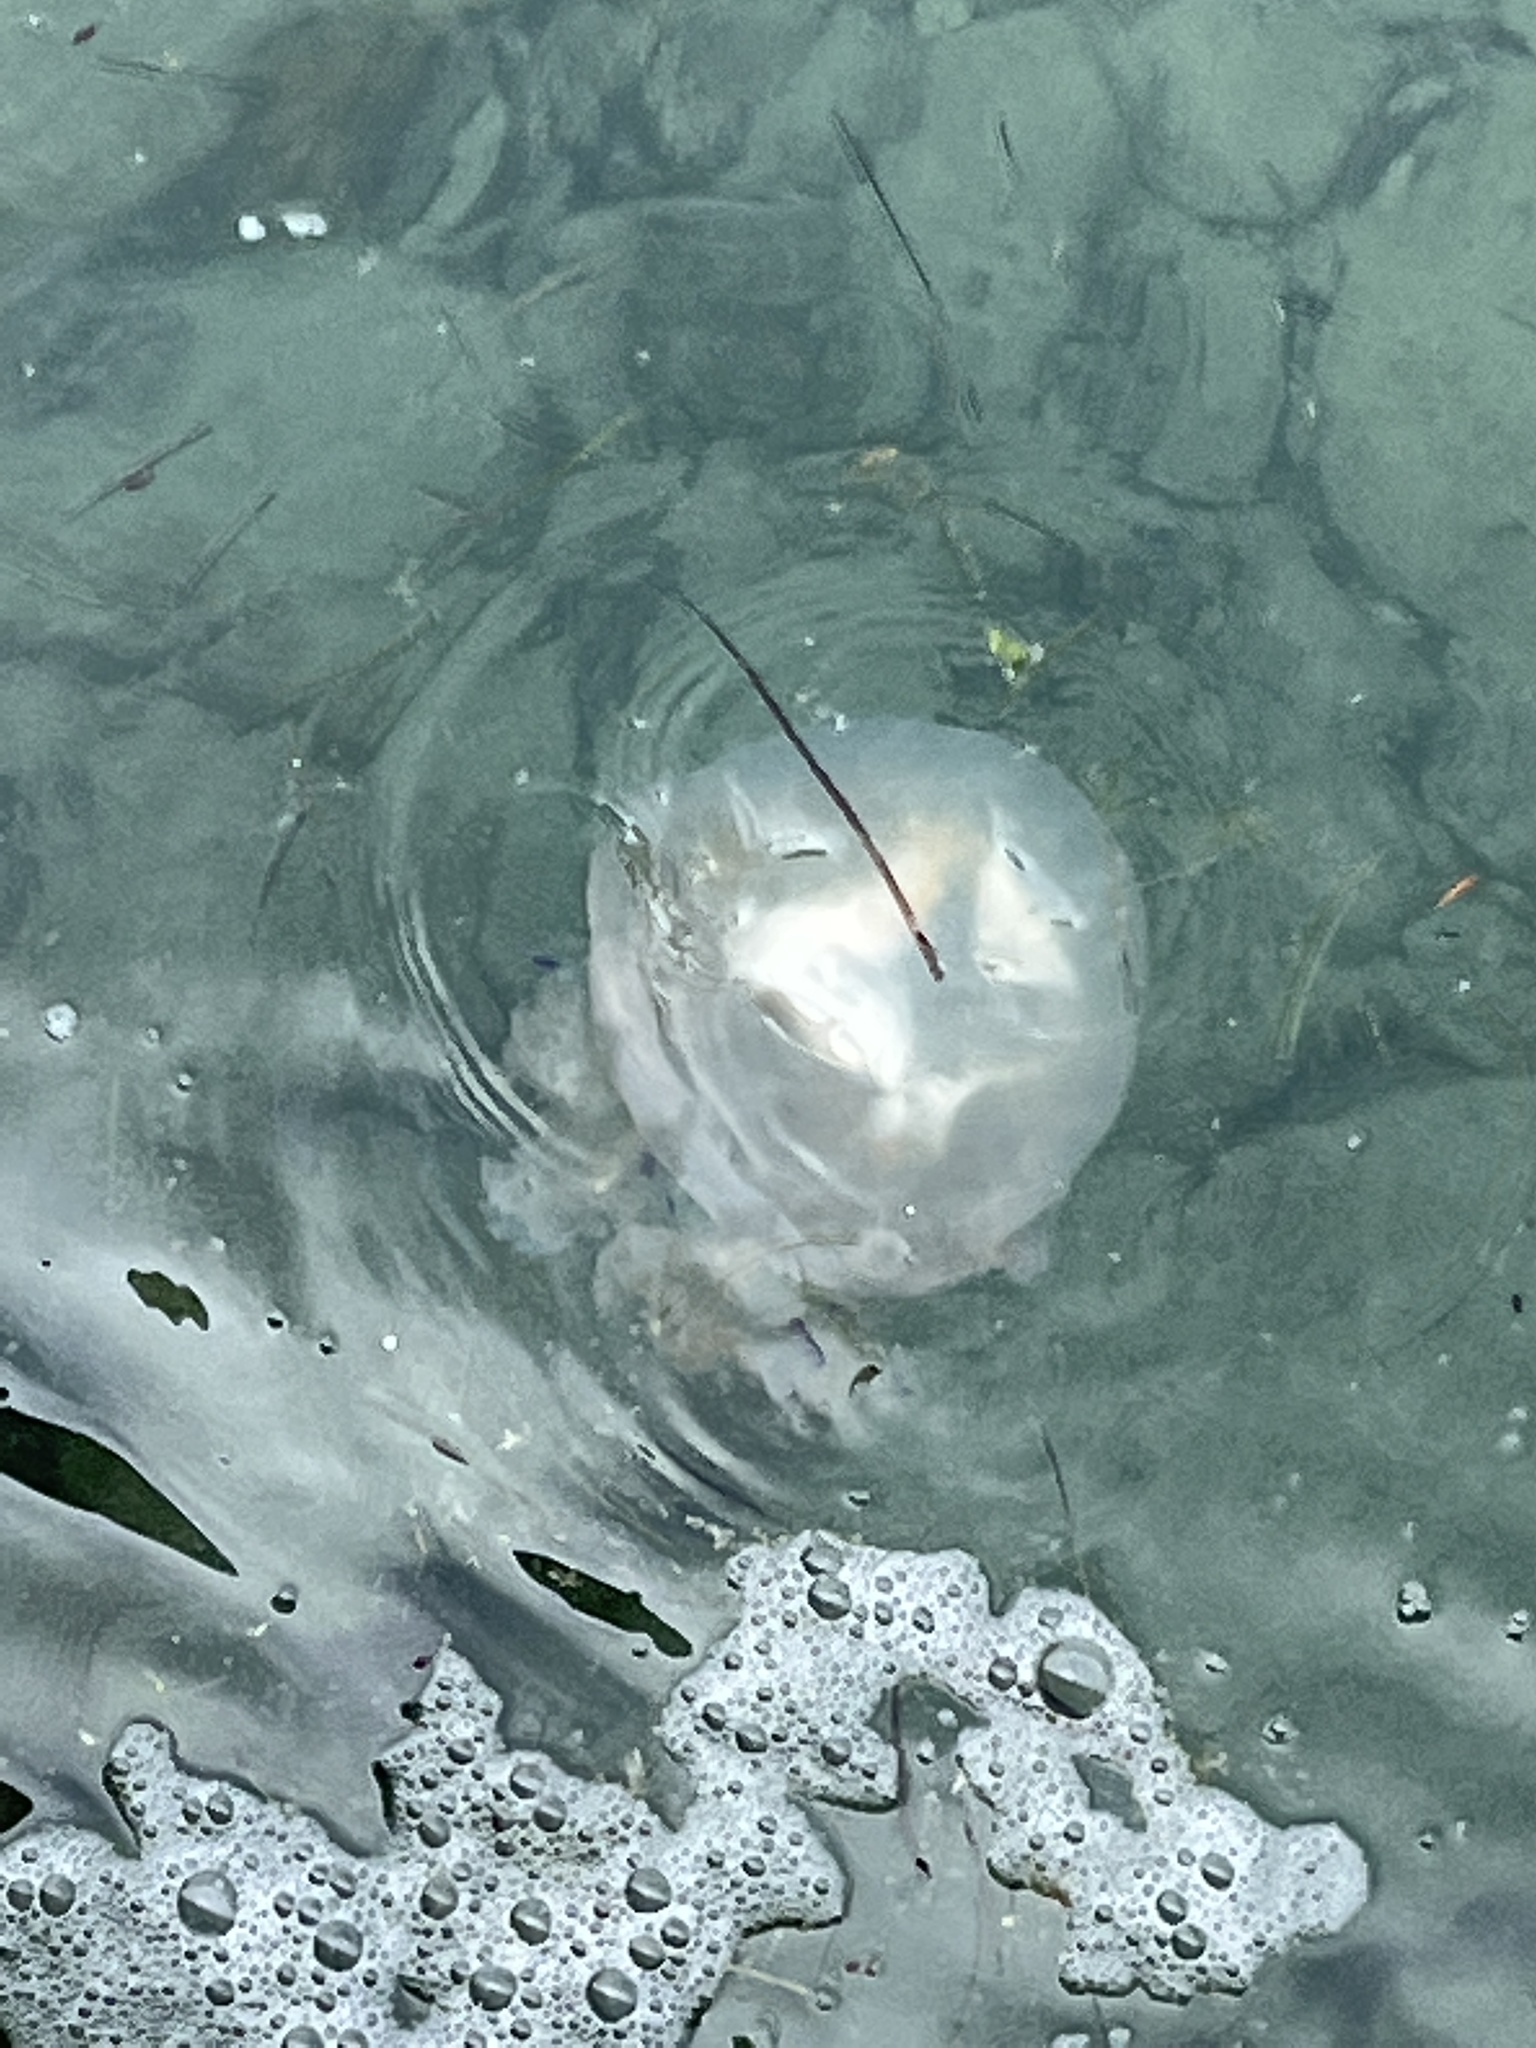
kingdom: Animalia
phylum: Cnidaria
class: Scyphozoa
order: Rhizostomeae
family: Rhizostomatidae
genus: Rhizostoma
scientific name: Rhizostoma pulmo
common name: Barrel jellyfish
